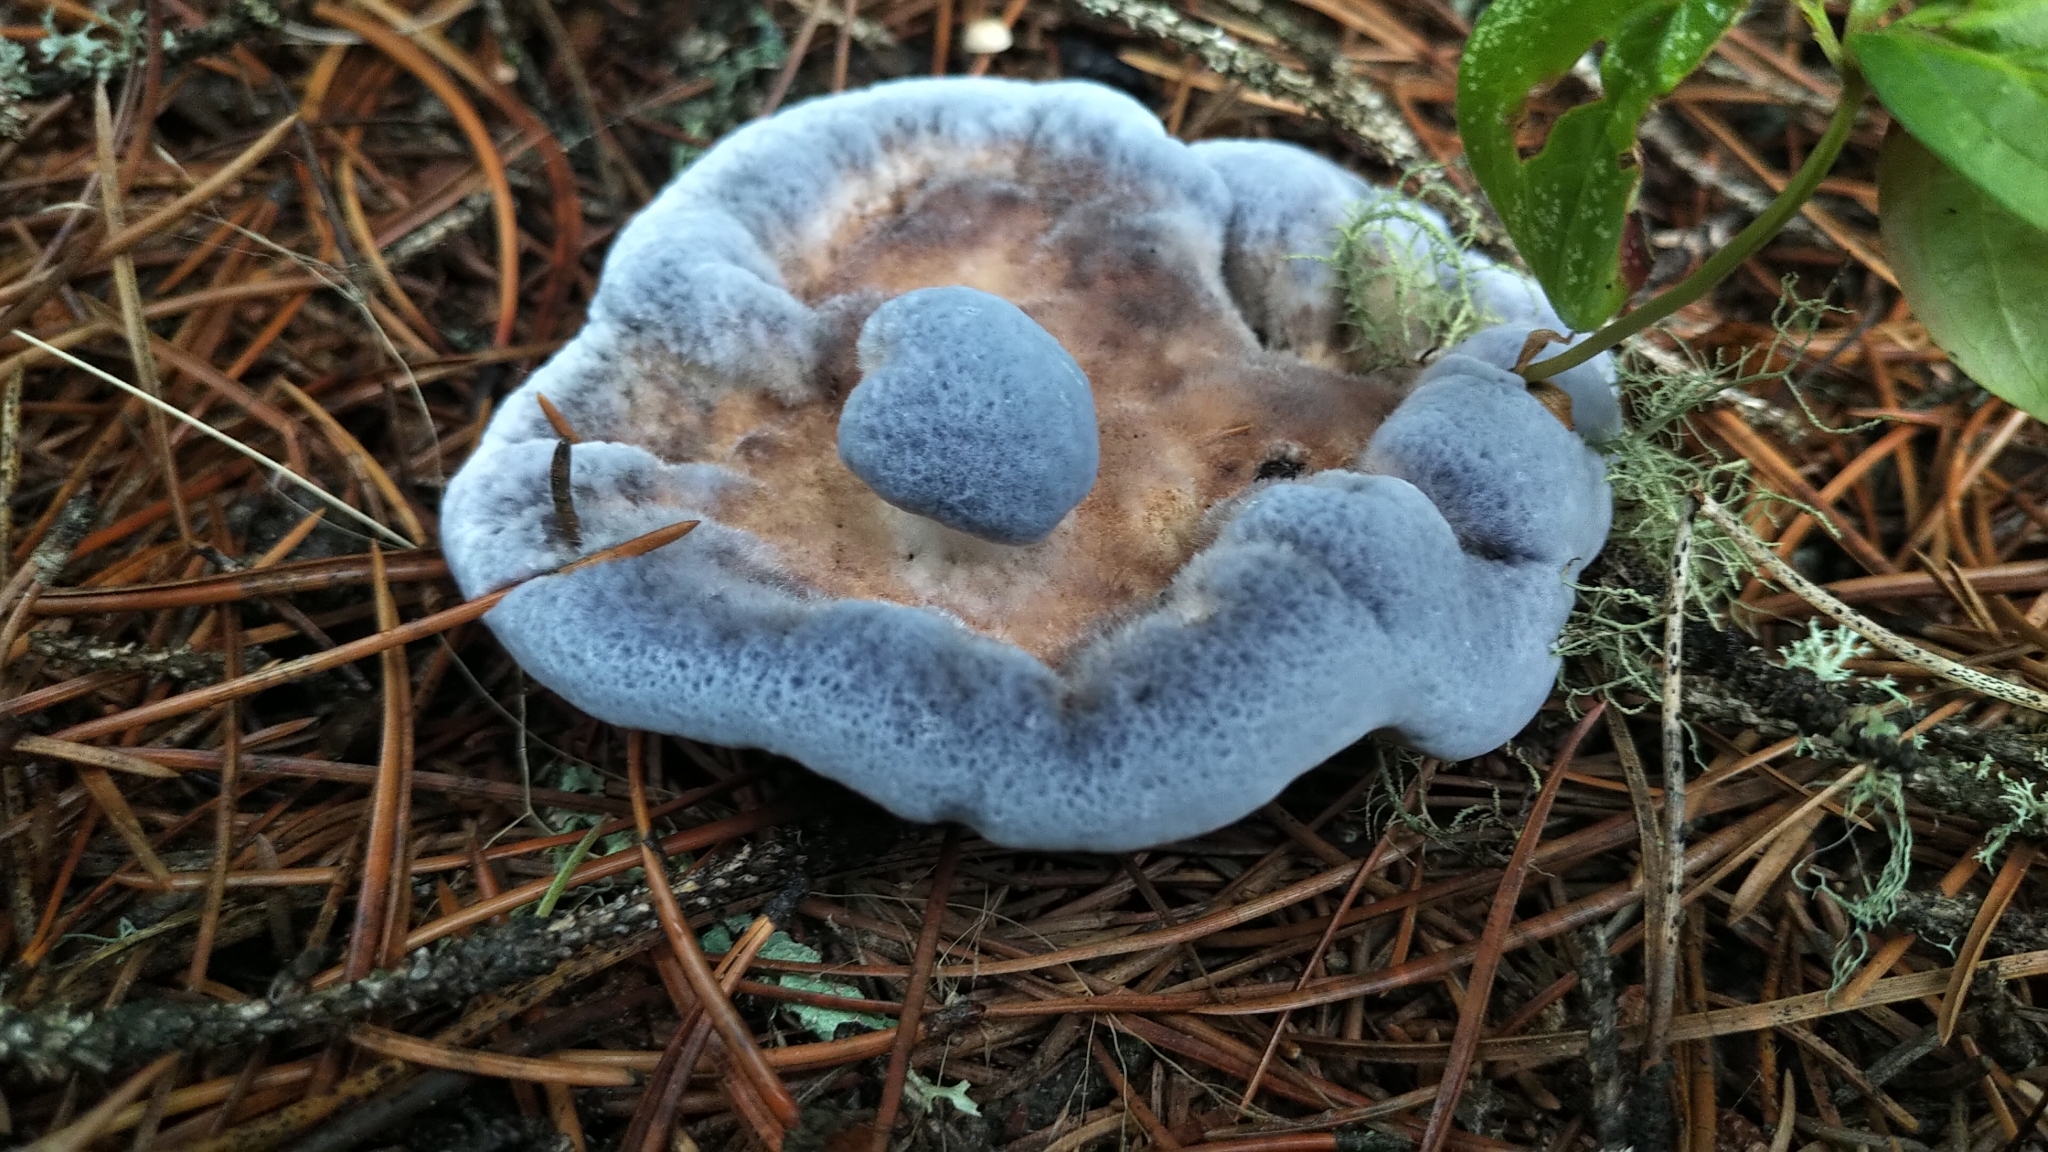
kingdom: Fungi
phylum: Basidiomycota
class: Agaricomycetes
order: Thelephorales
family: Bankeraceae
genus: Hydnellum
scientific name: Hydnellum caeruleum
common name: Blue corky spine fungus
